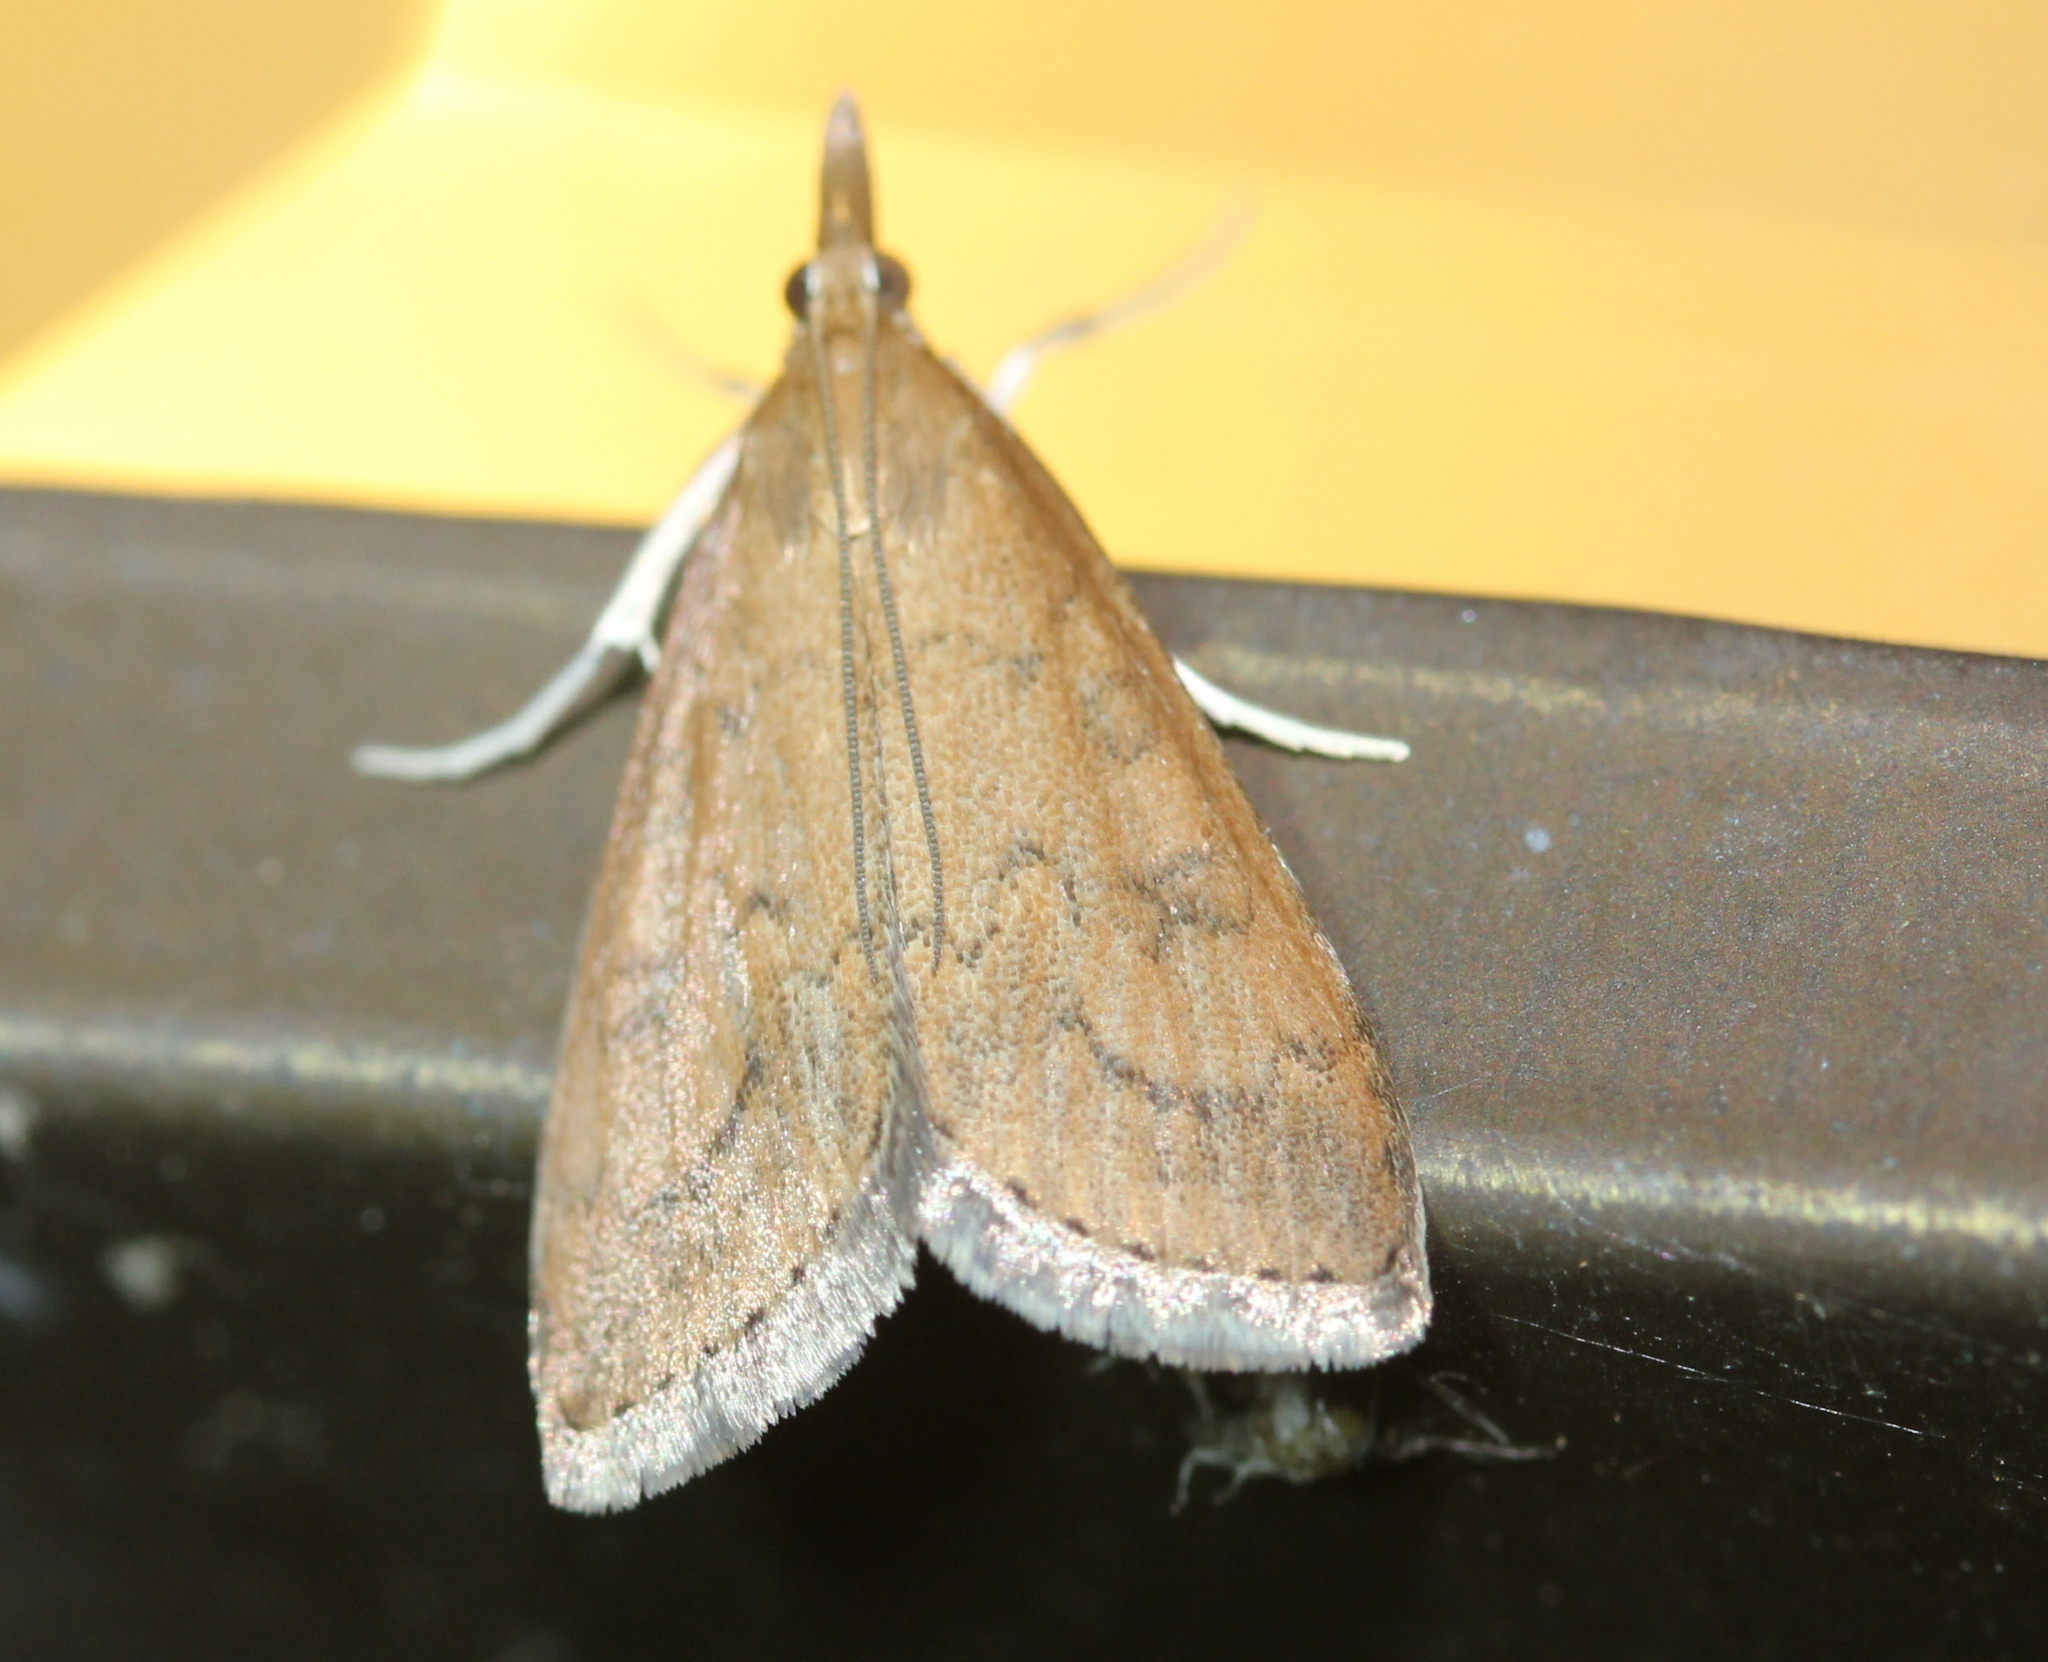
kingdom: Animalia
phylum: Arthropoda
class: Insecta
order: Lepidoptera
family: Crambidae
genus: Udea
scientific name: Udea rubigalis
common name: Celery leaftier moth
